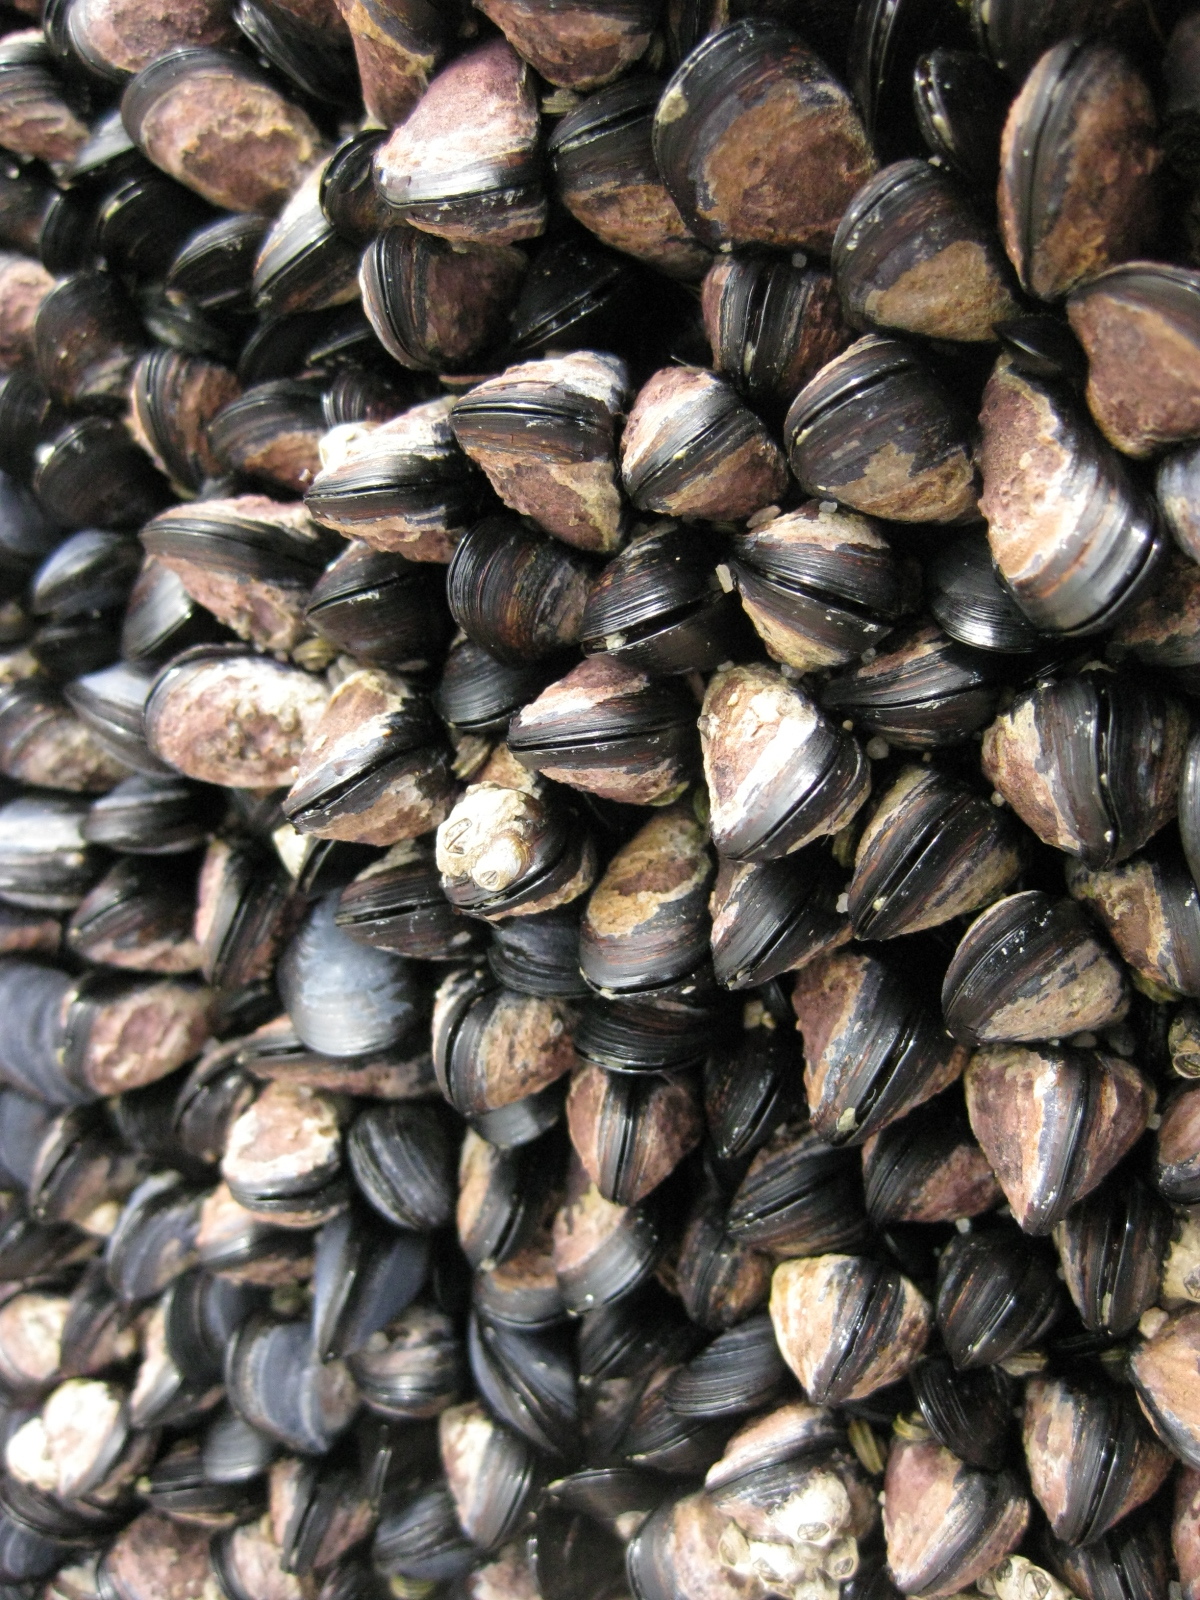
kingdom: Animalia
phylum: Mollusca
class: Bivalvia
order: Mytilida
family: Mytilidae
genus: Xenostrobus
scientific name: Xenostrobus neozelanicus
